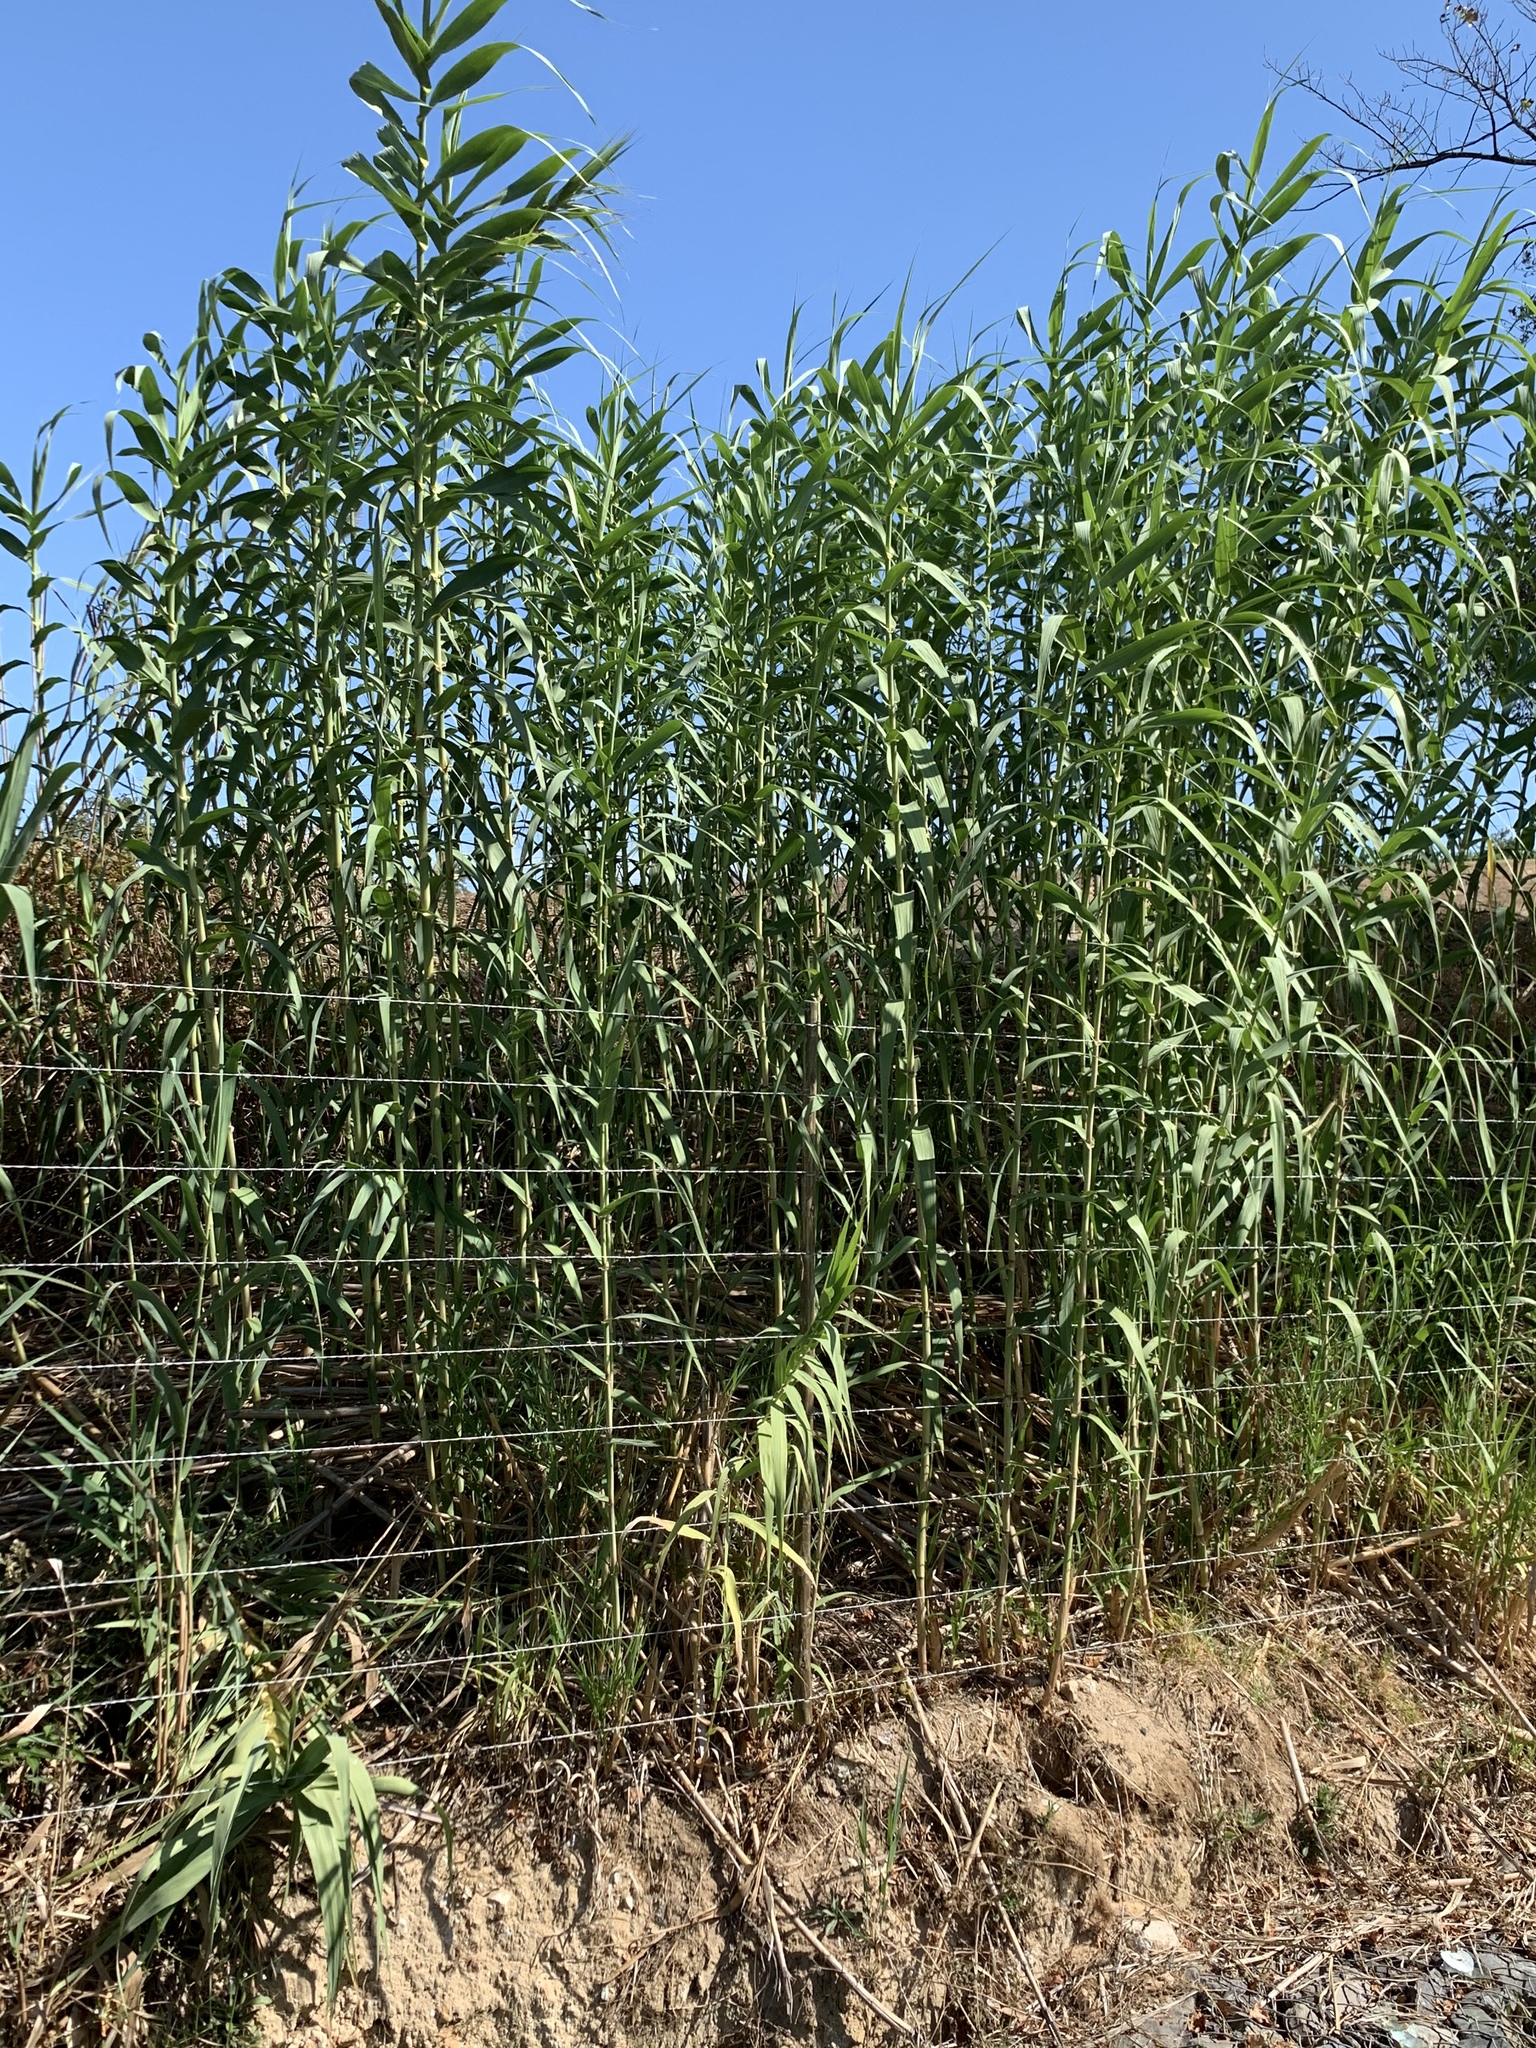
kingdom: Plantae
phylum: Tracheophyta
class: Liliopsida
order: Poales
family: Poaceae
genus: Arundo
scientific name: Arundo donax
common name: Giant reed
